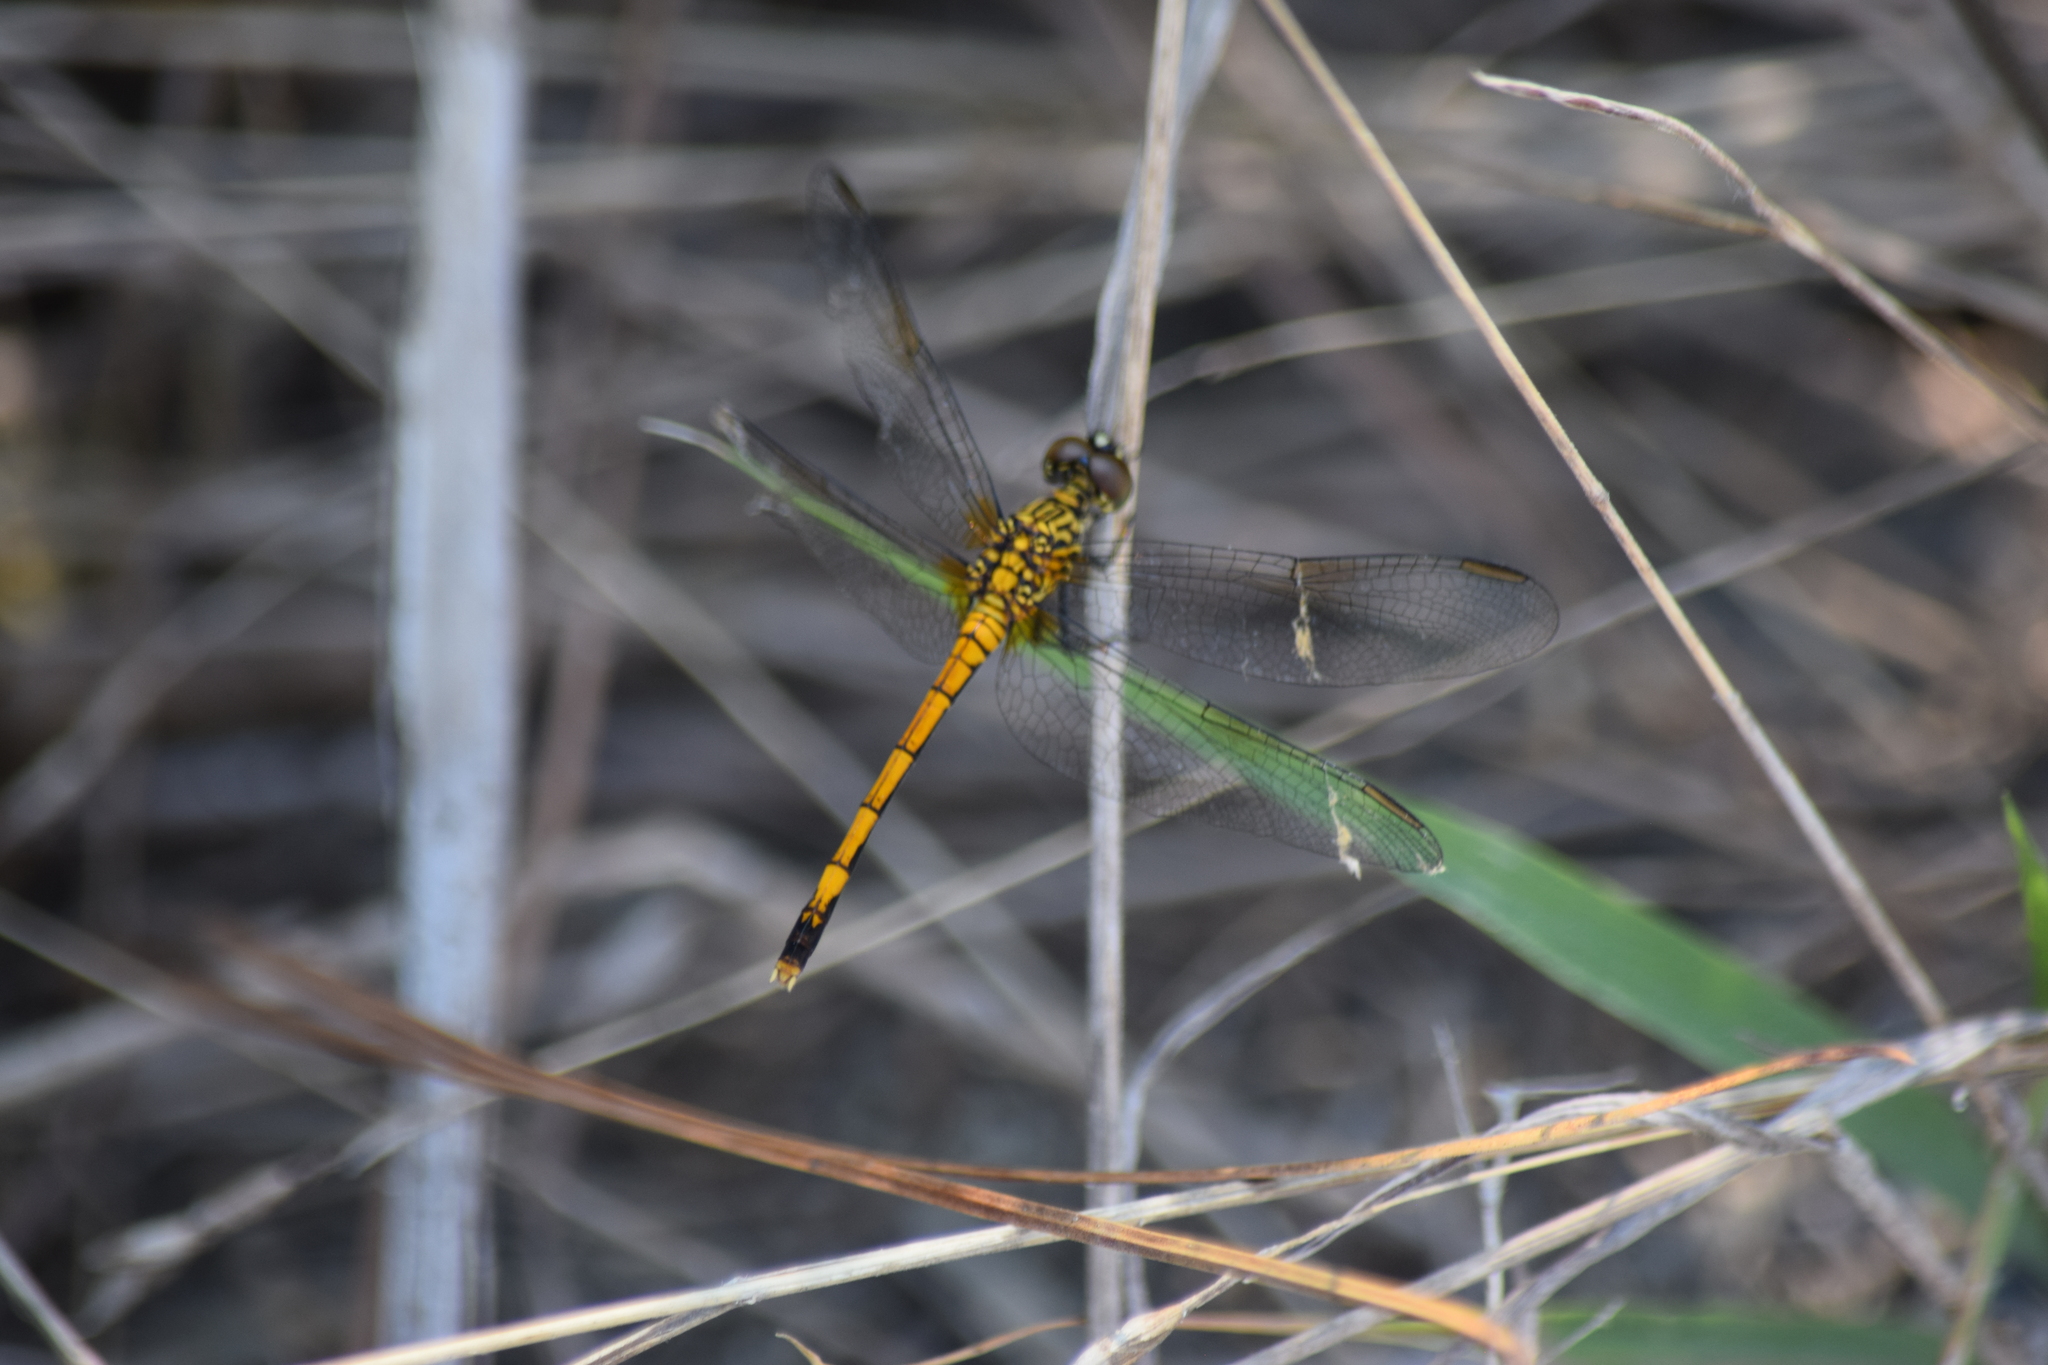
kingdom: Animalia
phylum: Arthropoda
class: Insecta
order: Odonata
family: Libellulidae
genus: Erythrodiplax
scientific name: Erythrodiplax berenice
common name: Seaside dragonlet
